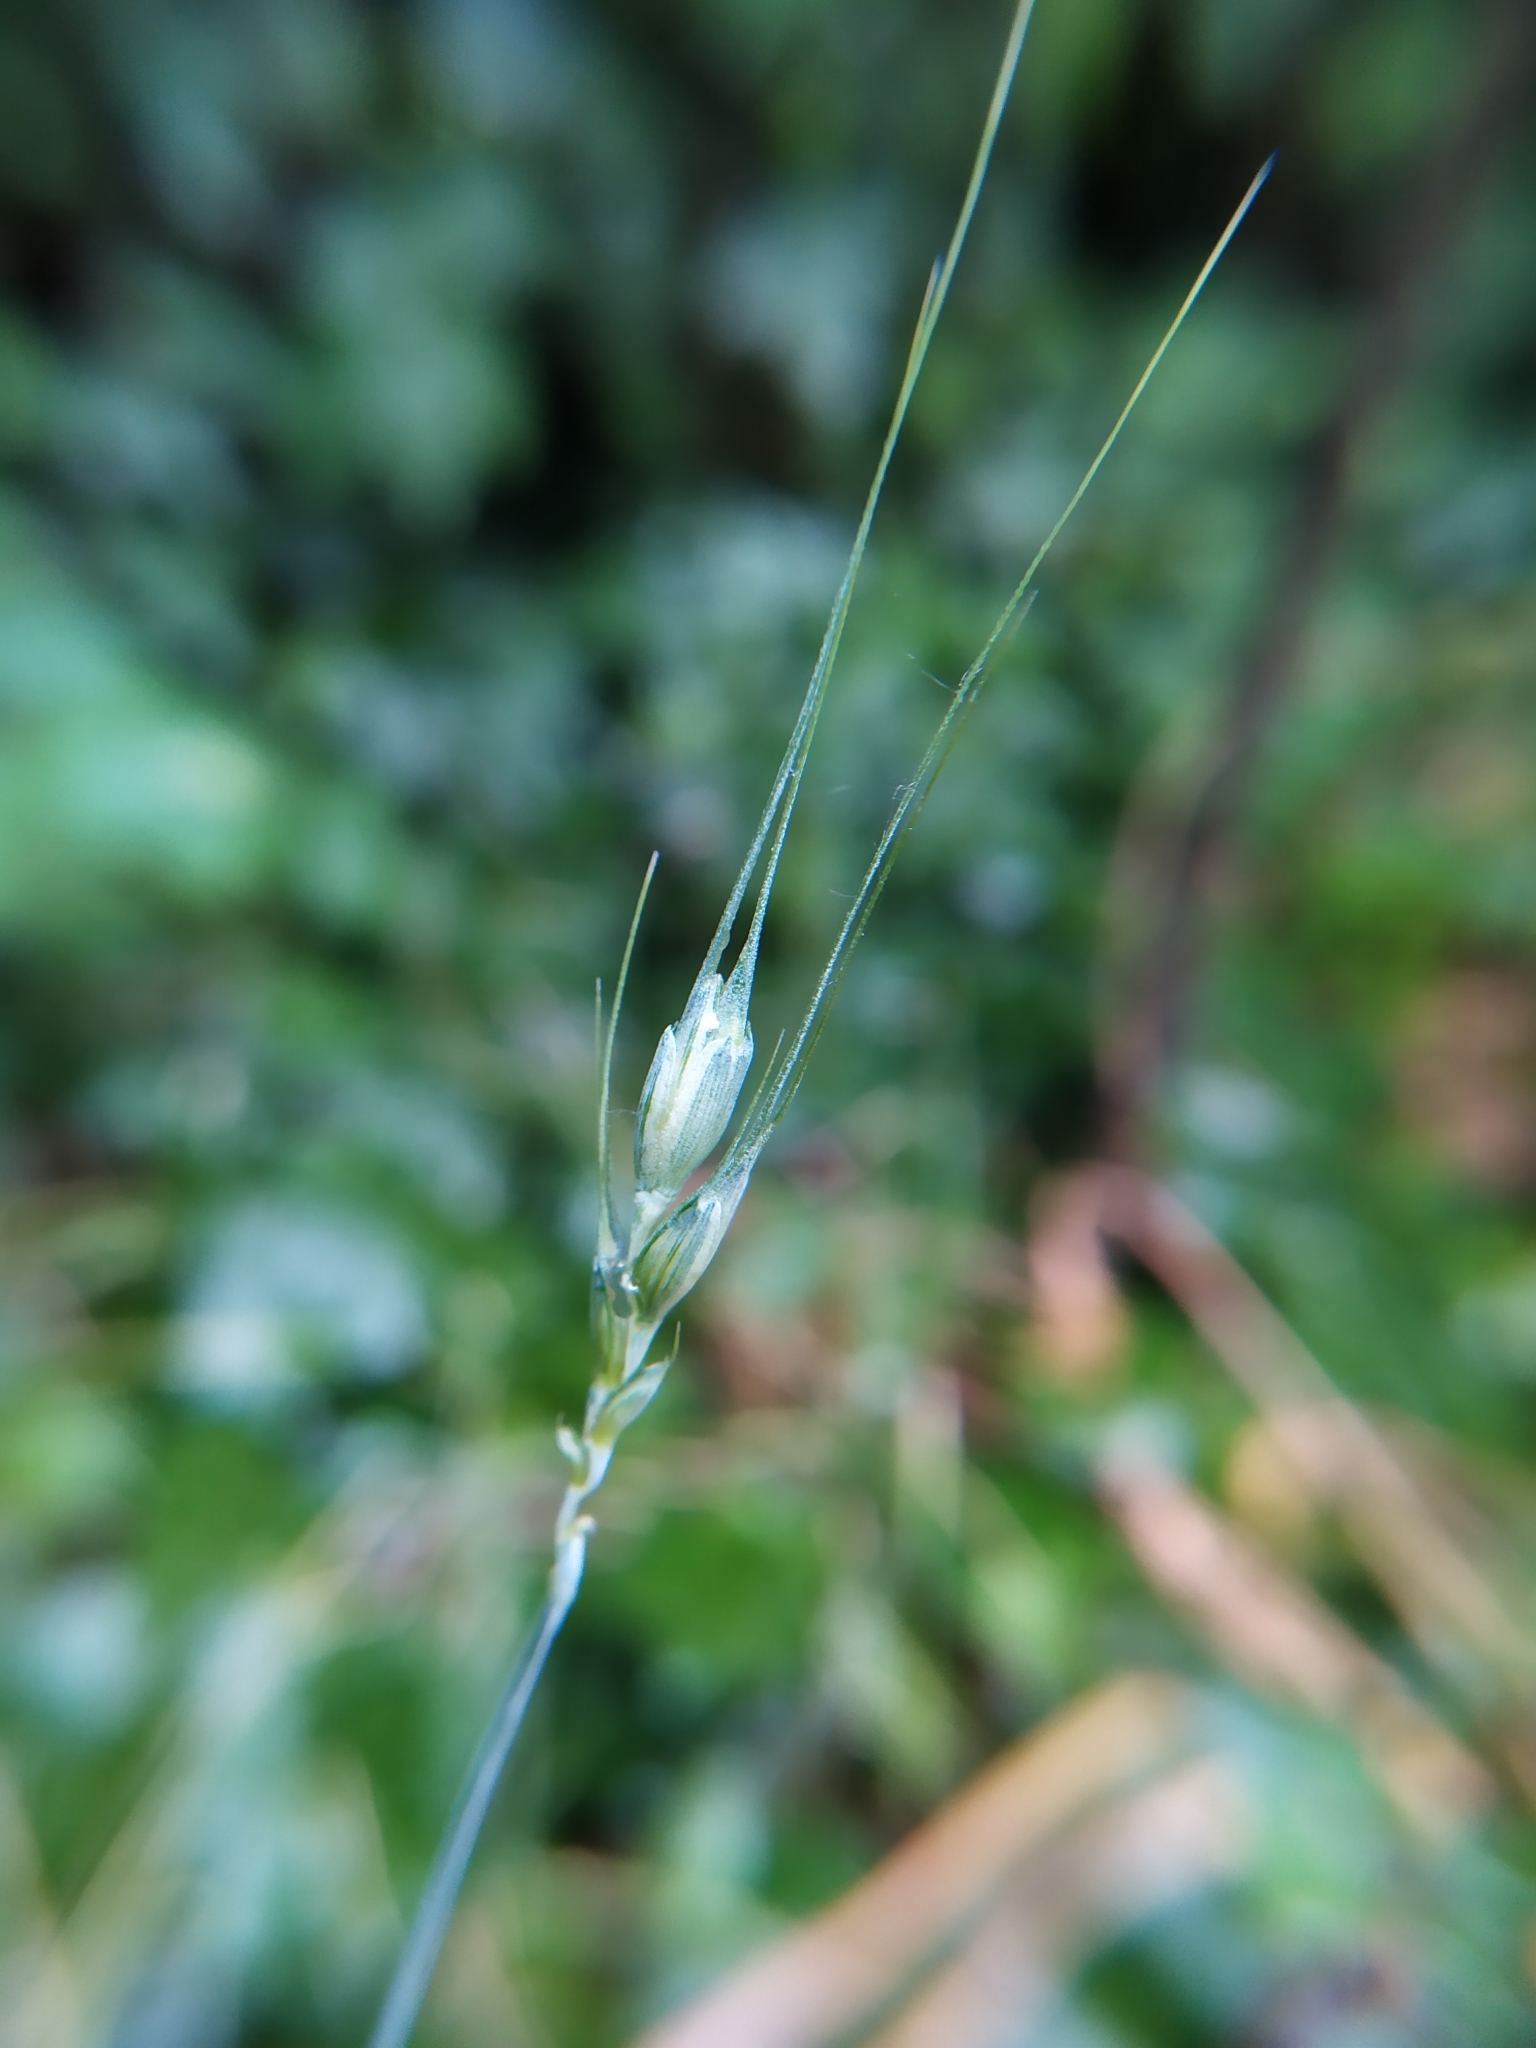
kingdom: Plantae
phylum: Tracheophyta
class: Liliopsida
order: Poales
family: Poaceae
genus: Triticum
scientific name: Triticum aestivum
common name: Common wheat
